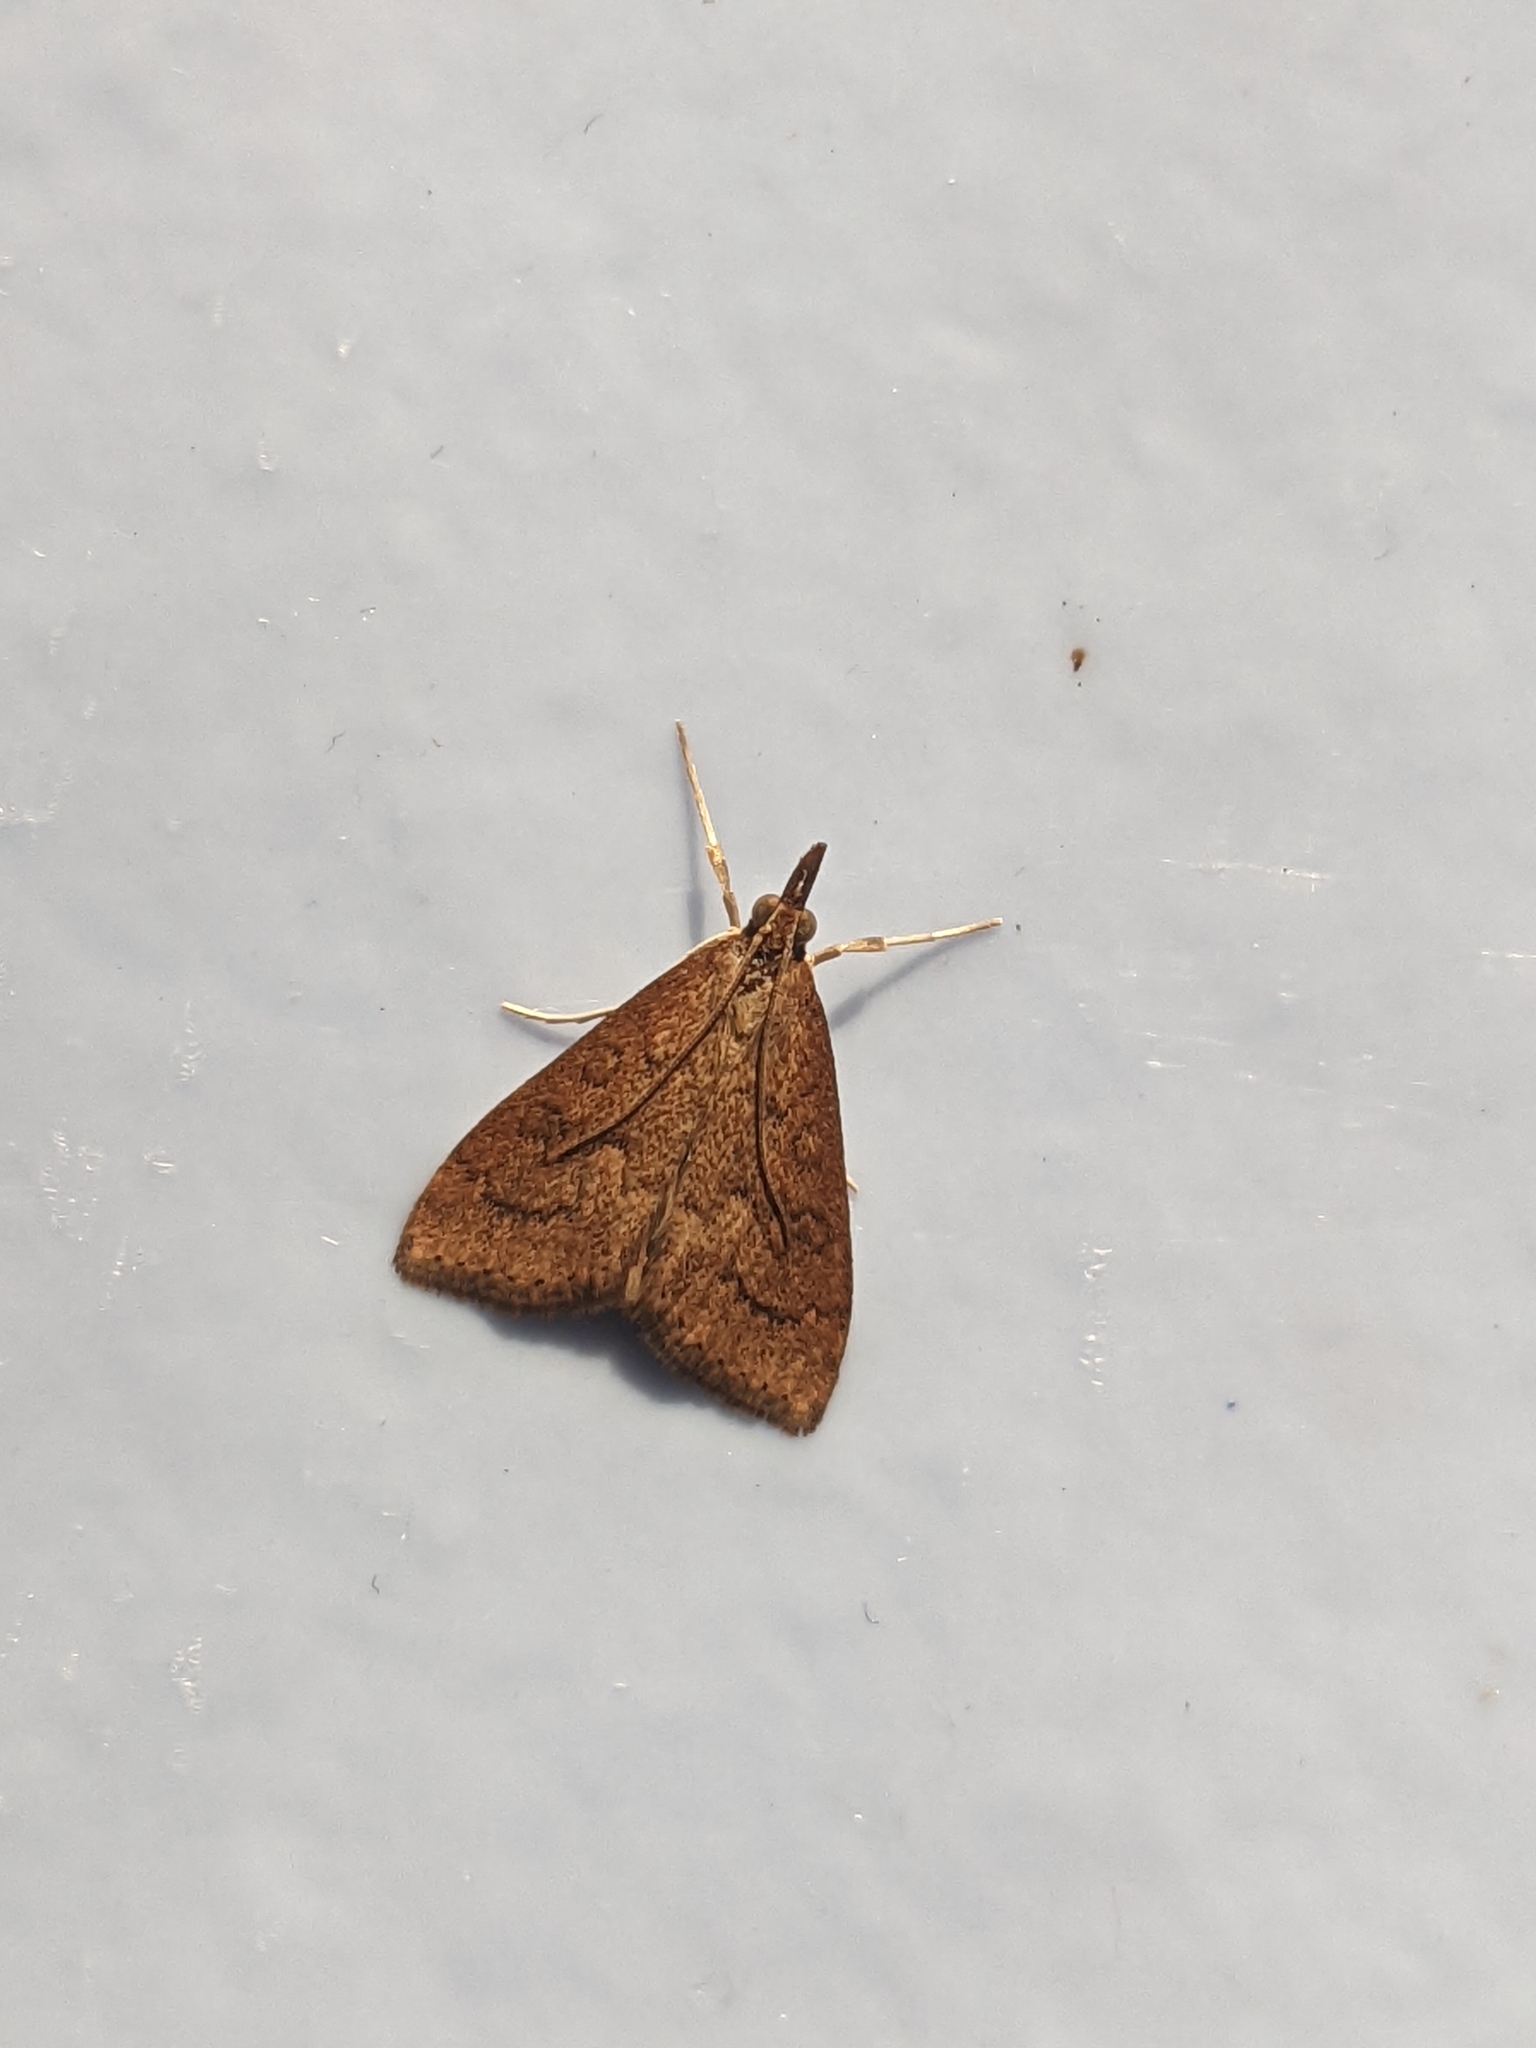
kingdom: Animalia
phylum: Arthropoda
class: Insecta
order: Lepidoptera
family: Crambidae
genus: Udea
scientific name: Udea rubigalis
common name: Celery leaftier moth
